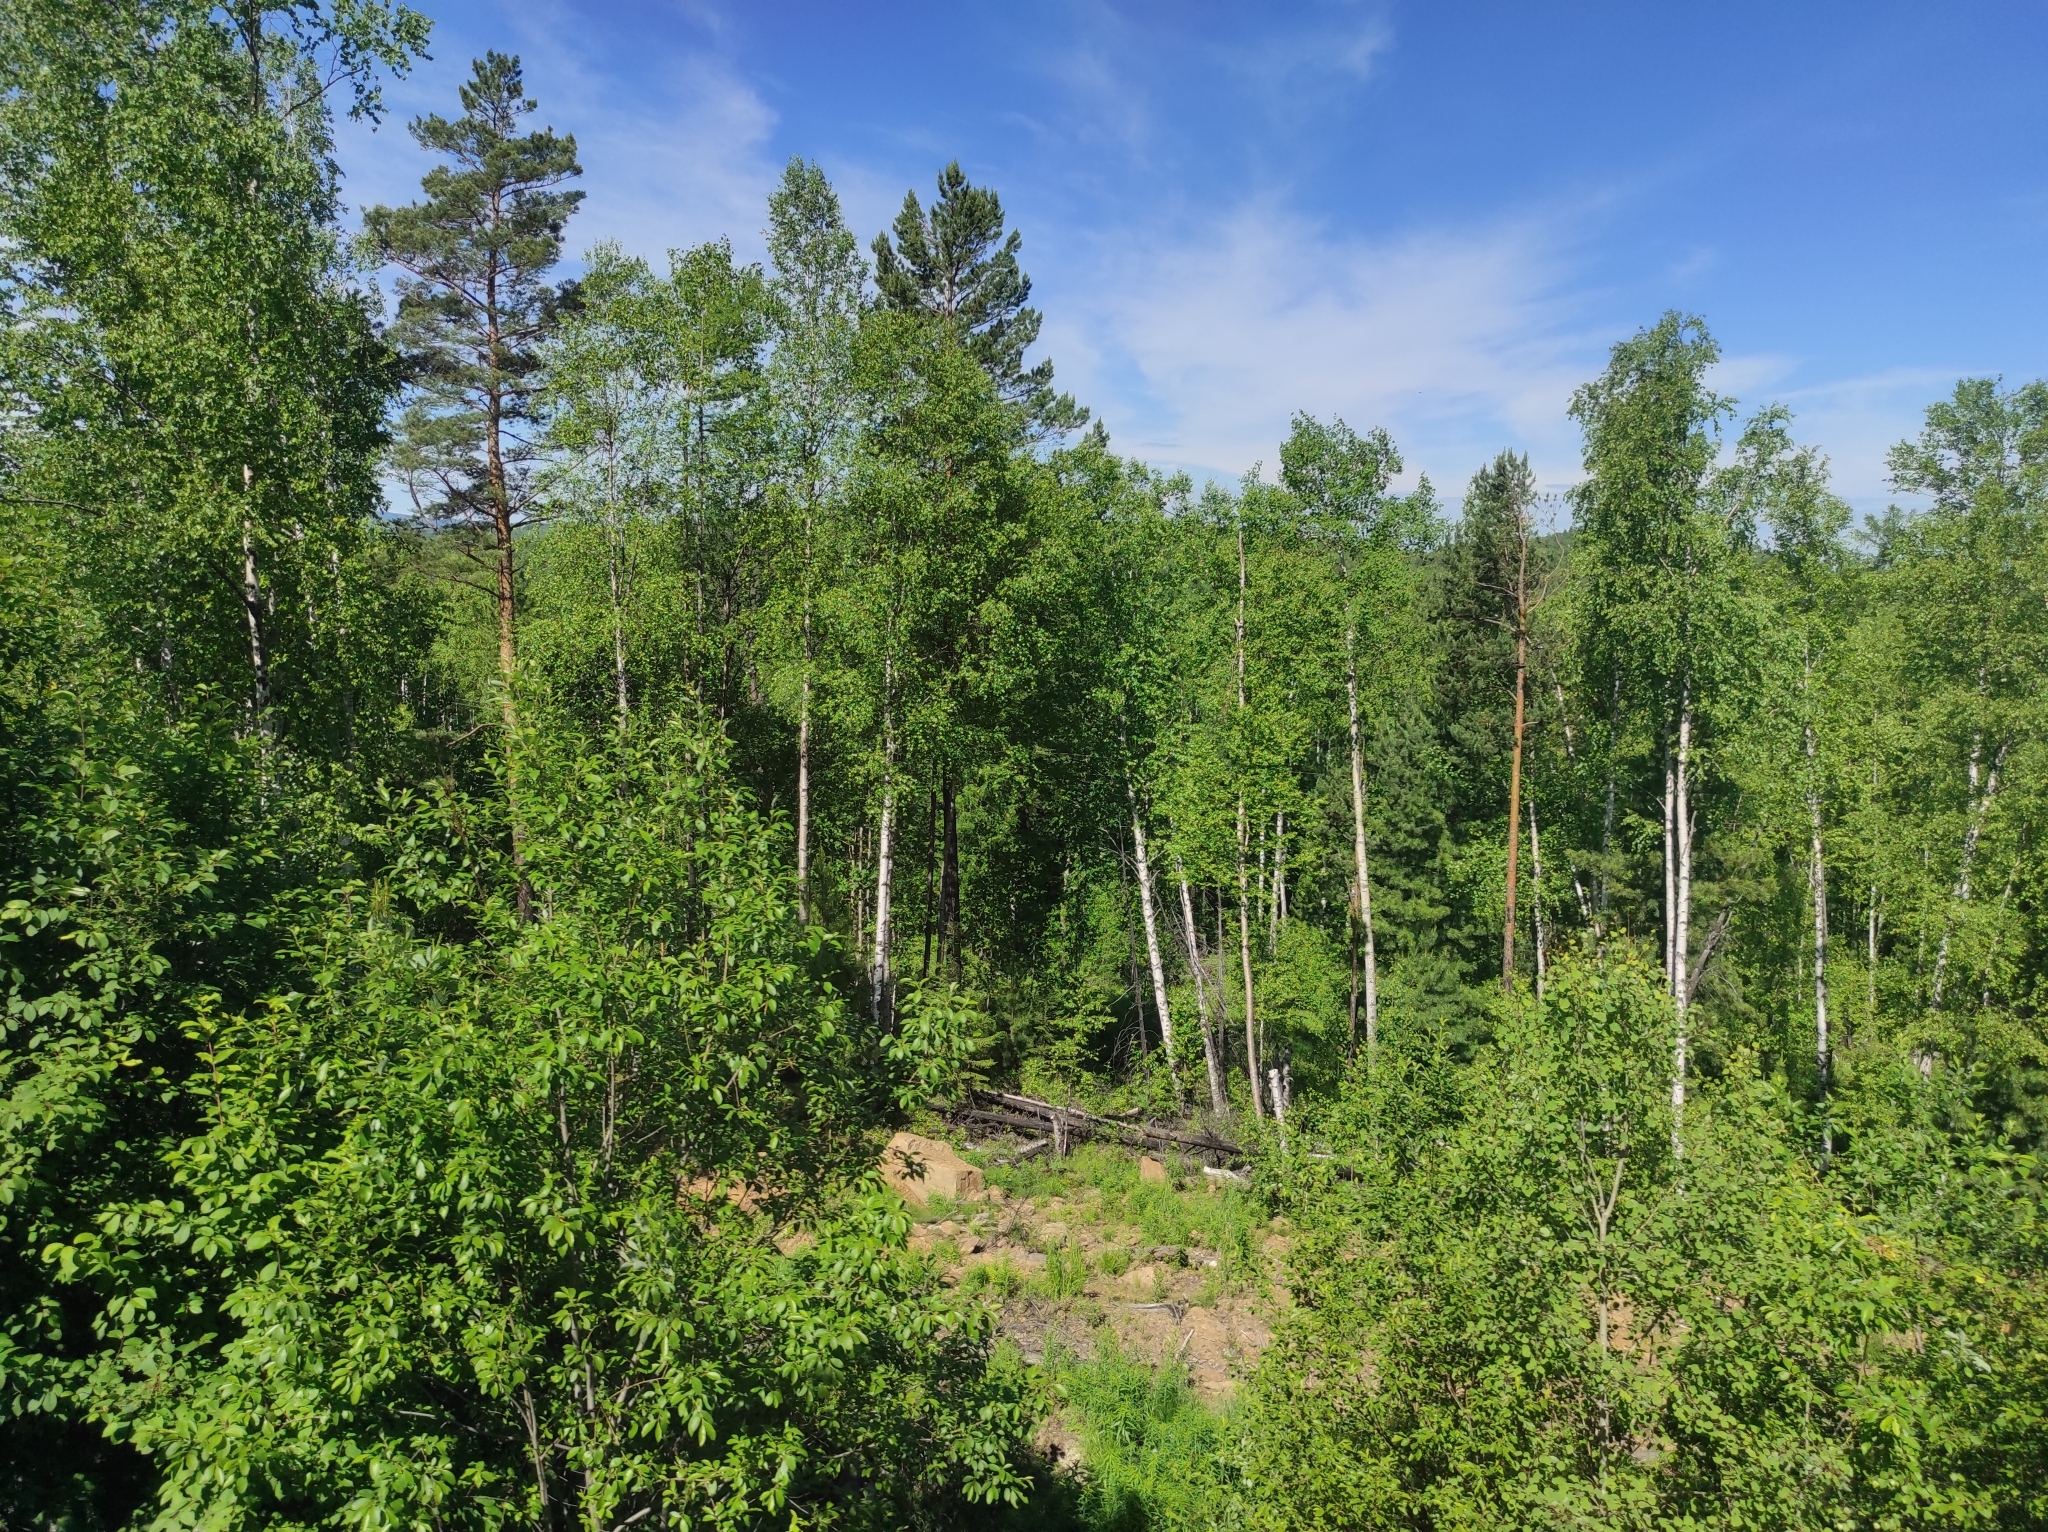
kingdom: Plantae
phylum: Tracheophyta
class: Pinopsida
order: Pinales
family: Pinaceae
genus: Pinus
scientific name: Pinus sylvestris
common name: Scots pine
